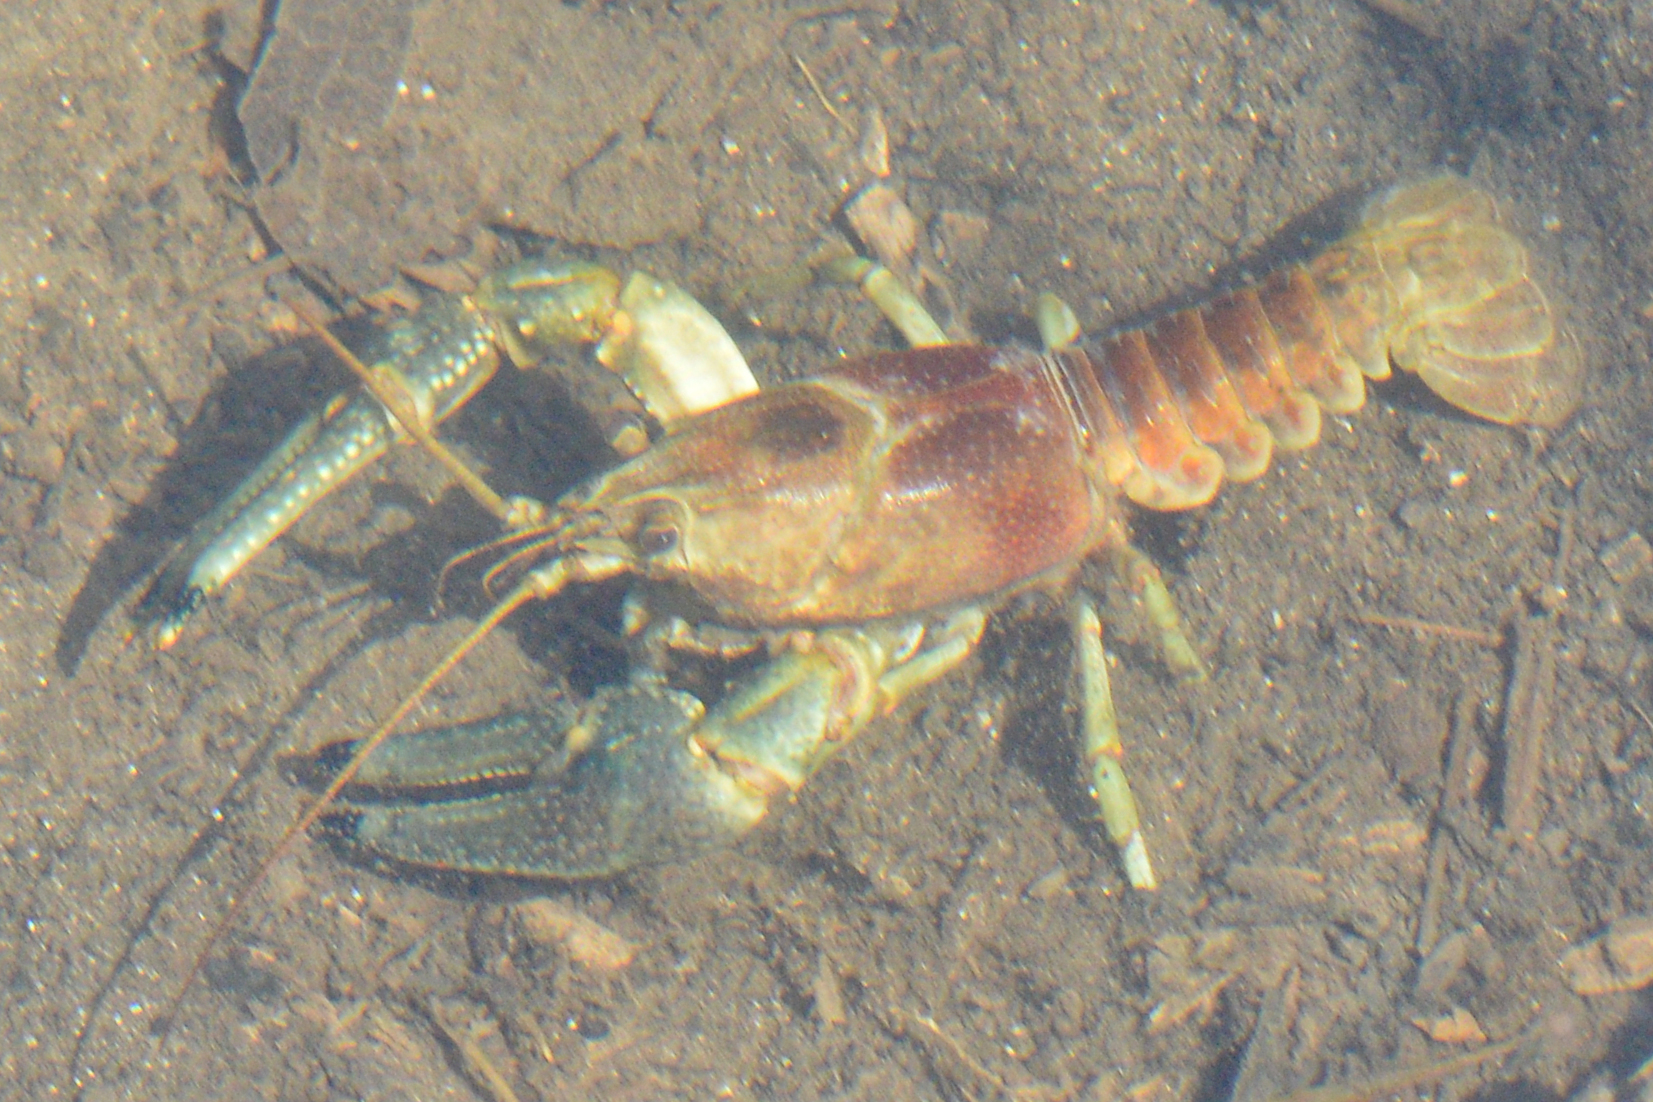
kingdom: Animalia
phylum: Arthropoda
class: Malacostraca
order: Decapoda
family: Cambaridae
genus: Faxonius
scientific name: Faxonius rusticus
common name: Rusty crayfish
